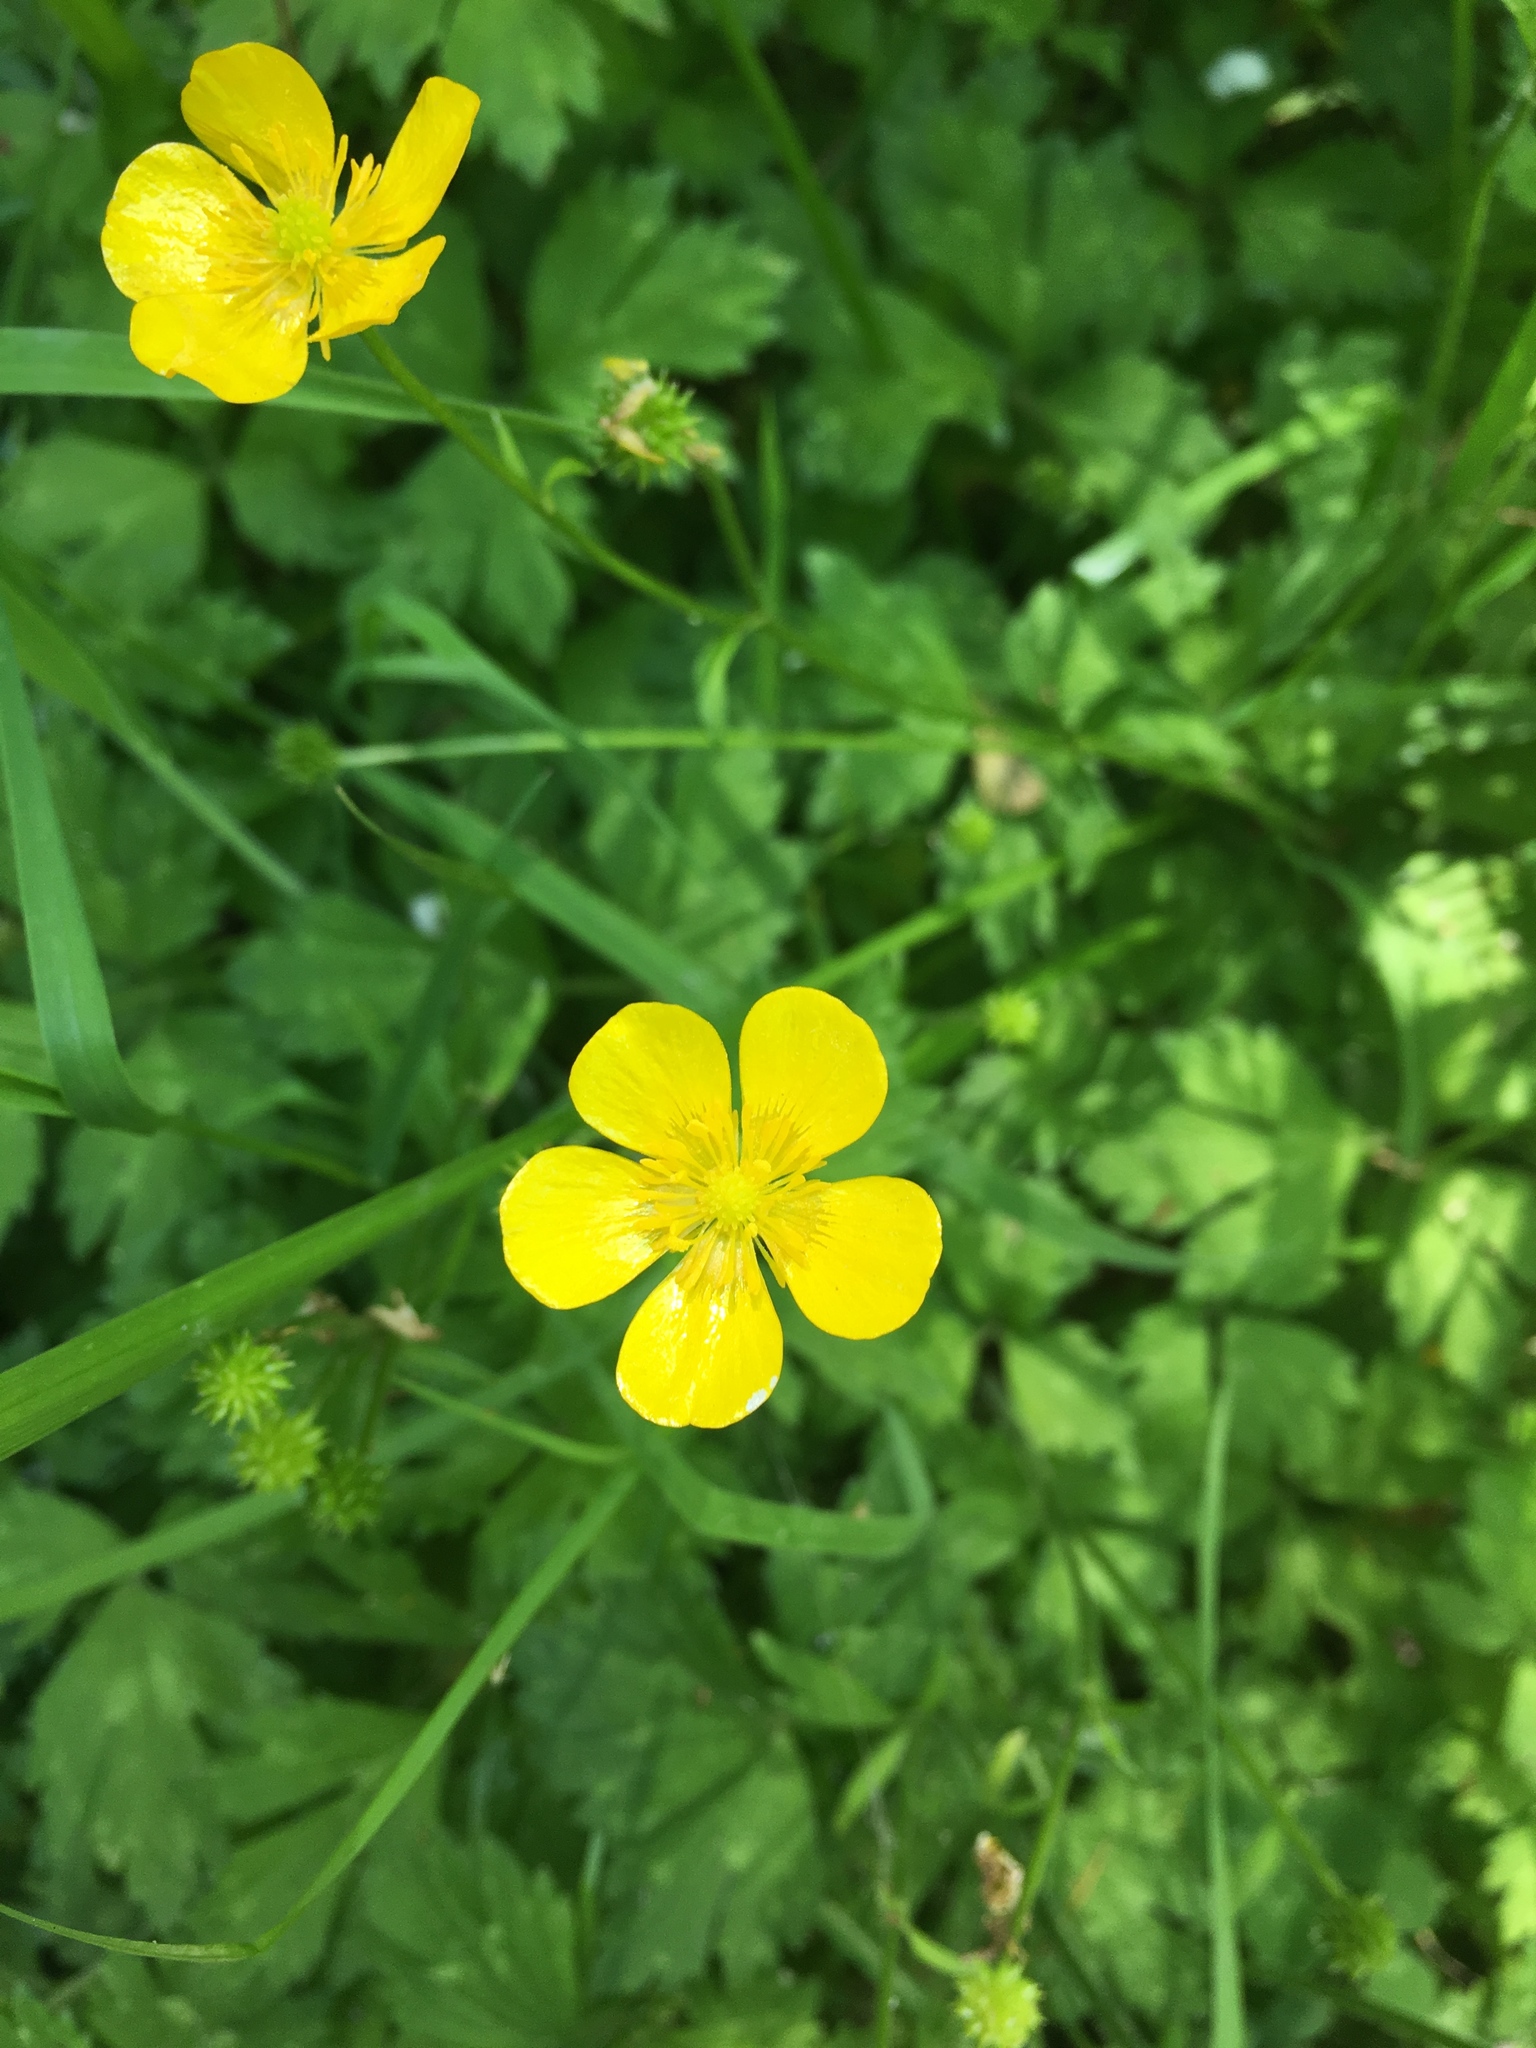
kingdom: Plantae
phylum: Tracheophyta
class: Magnoliopsida
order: Ranunculales
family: Ranunculaceae
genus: Ranunculus
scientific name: Ranunculus repens
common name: Creeping buttercup
